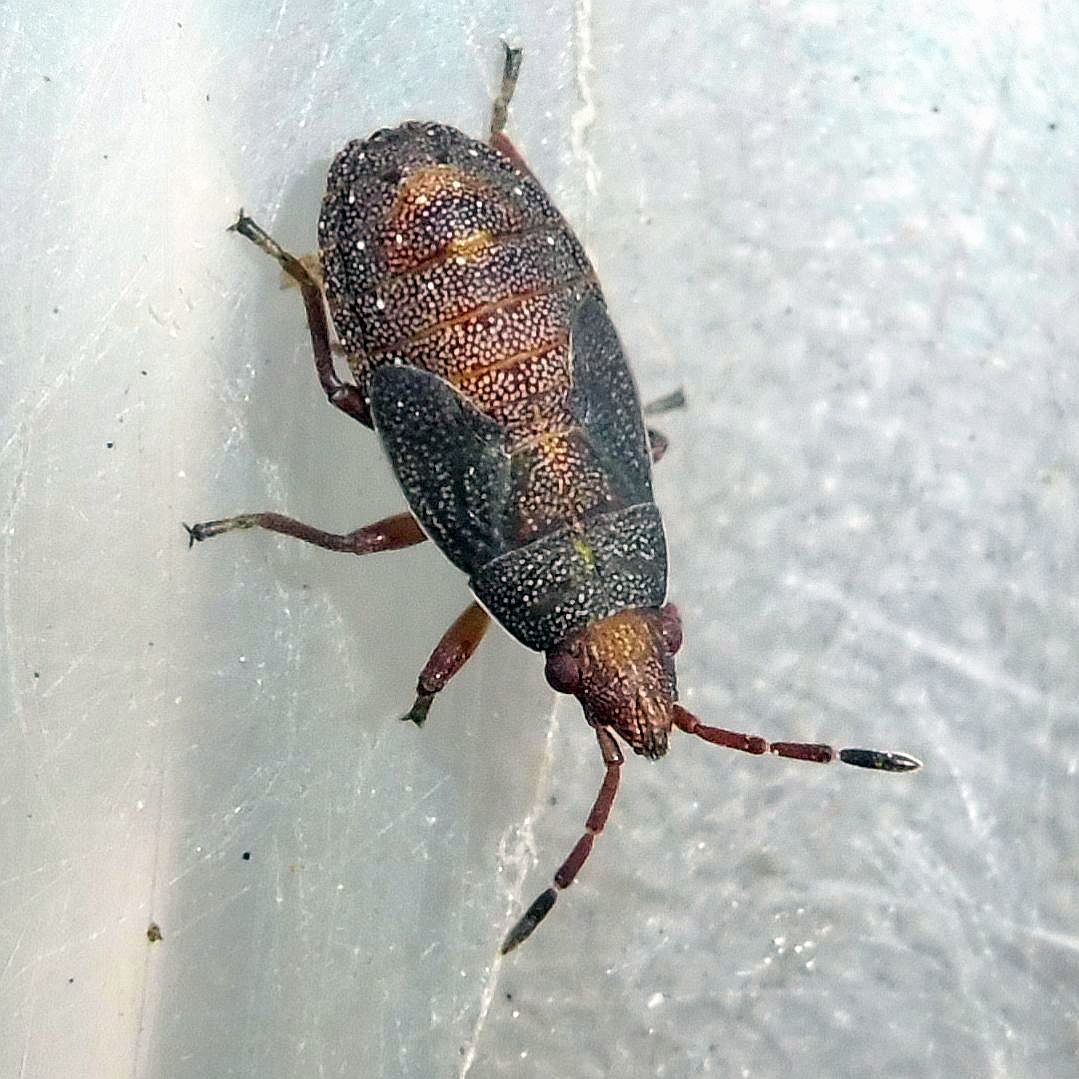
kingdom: Animalia
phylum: Arthropoda
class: Insecta
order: Hemiptera
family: Lygaeidae
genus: Orsillus
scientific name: Orsillus depressus
